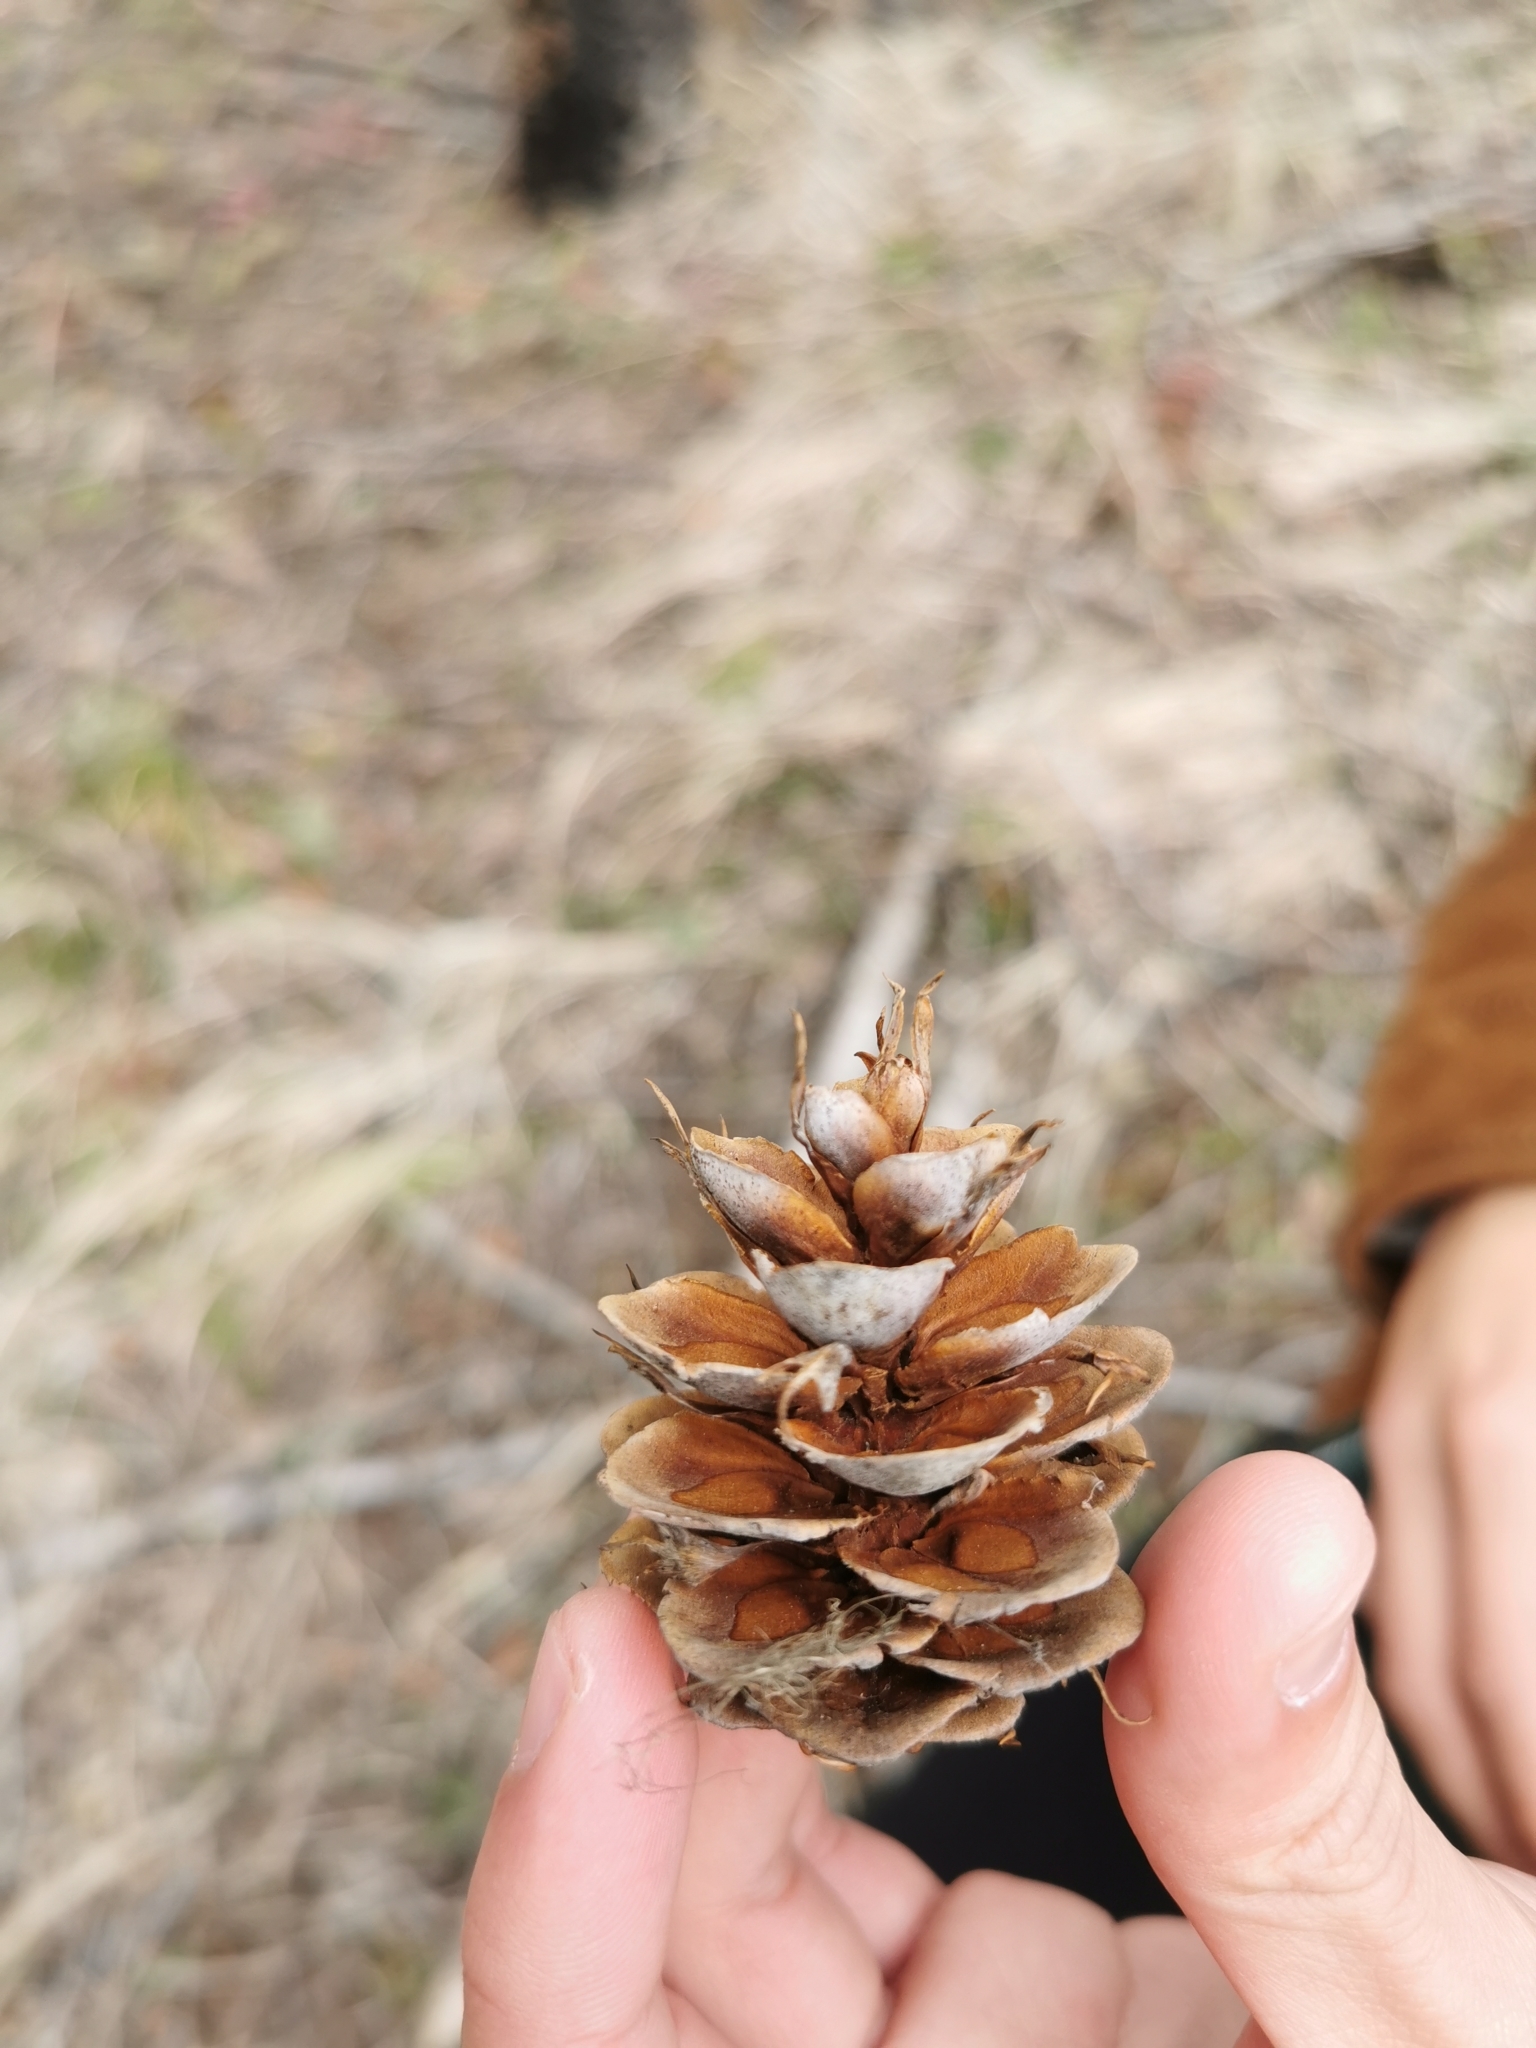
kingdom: Plantae
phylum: Tracheophyta
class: Pinopsida
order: Pinales
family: Pinaceae
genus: Pseudotsuga
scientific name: Pseudotsuga menziesii
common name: Douglas fir
